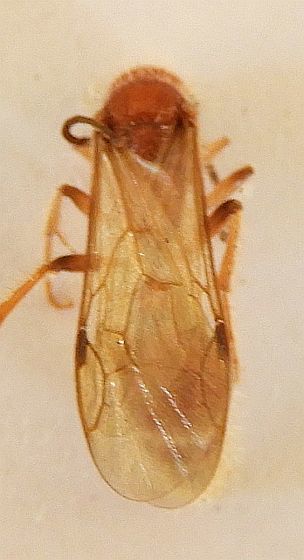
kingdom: Animalia
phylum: Arthropoda
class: Insecta
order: Hymenoptera
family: Mutillidae
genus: Odontophotopsis
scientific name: Odontophotopsis
